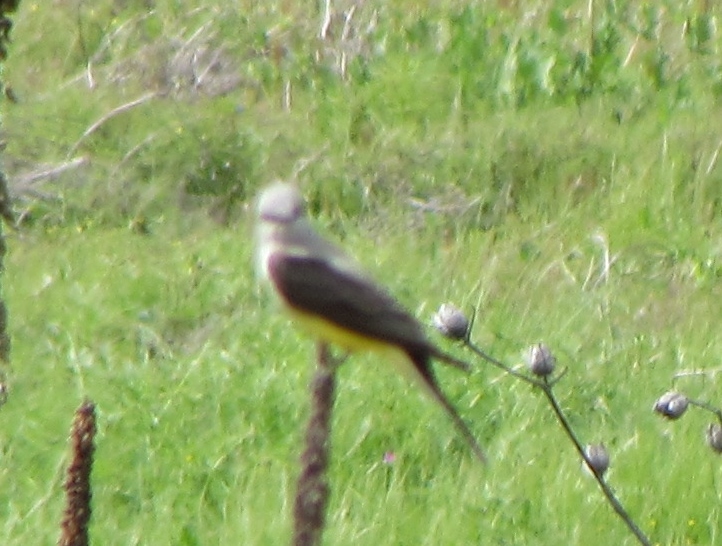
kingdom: Animalia
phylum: Chordata
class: Aves
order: Passeriformes
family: Tyrannidae
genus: Tyrannus
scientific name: Tyrannus verticalis
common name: Western kingbird
